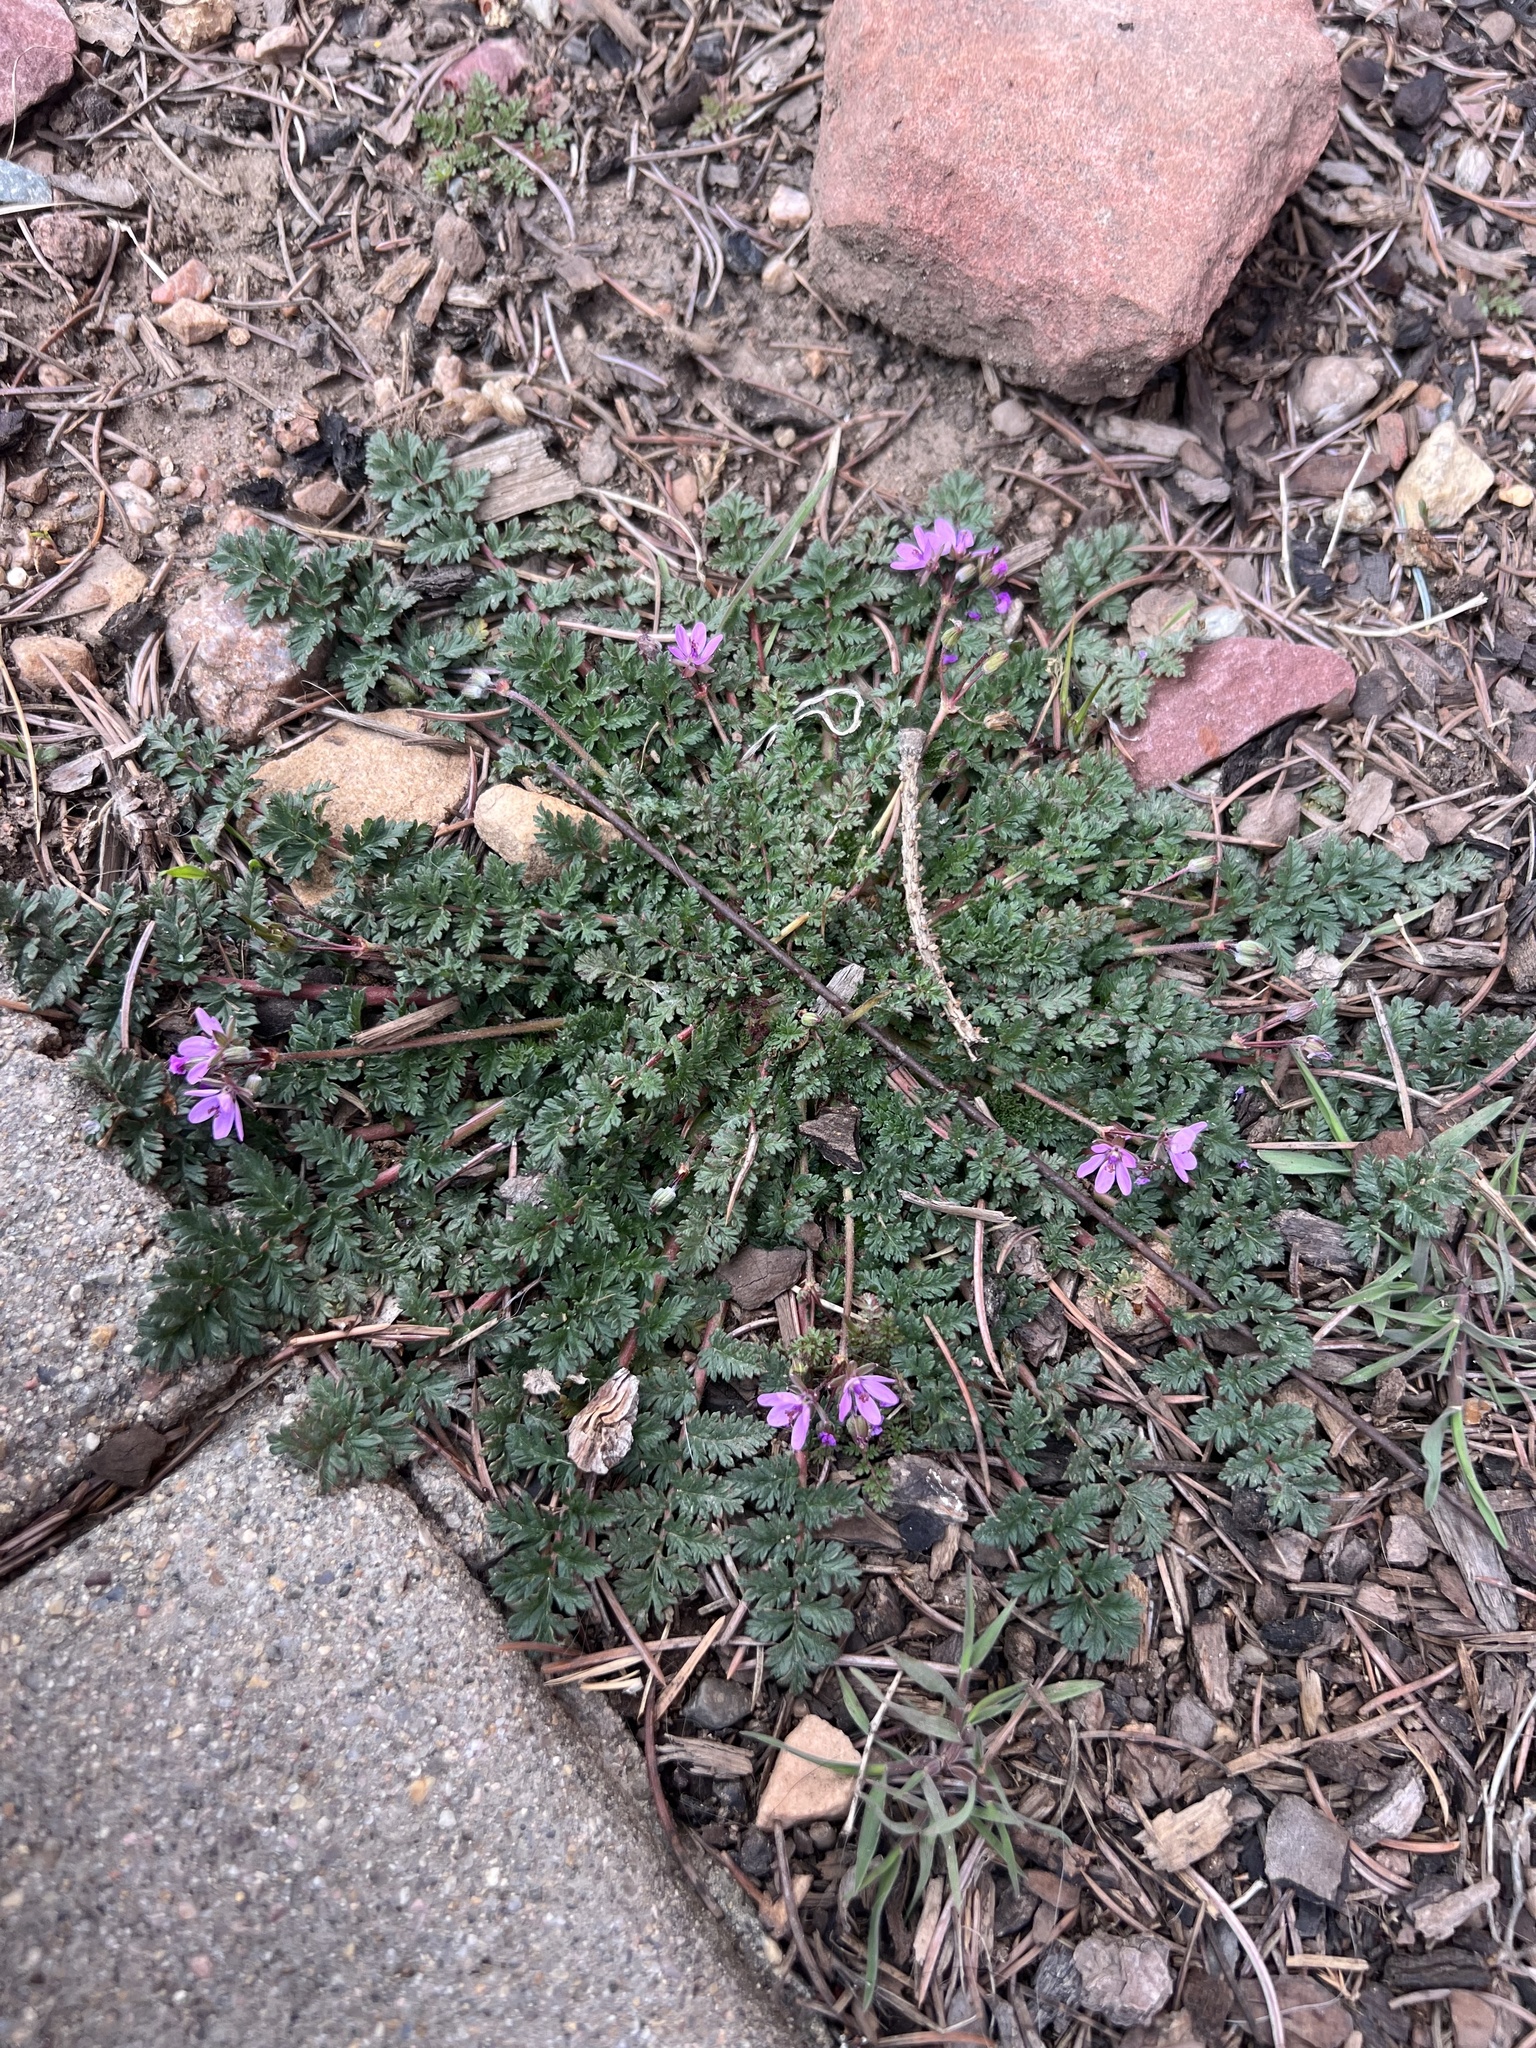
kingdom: Plantae
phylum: Tracheophyta
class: Magnoliopsida
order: Geraniales
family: Geraniaceae
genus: Erodium
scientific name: Erodium cicutarium
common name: Common stork's-bill
